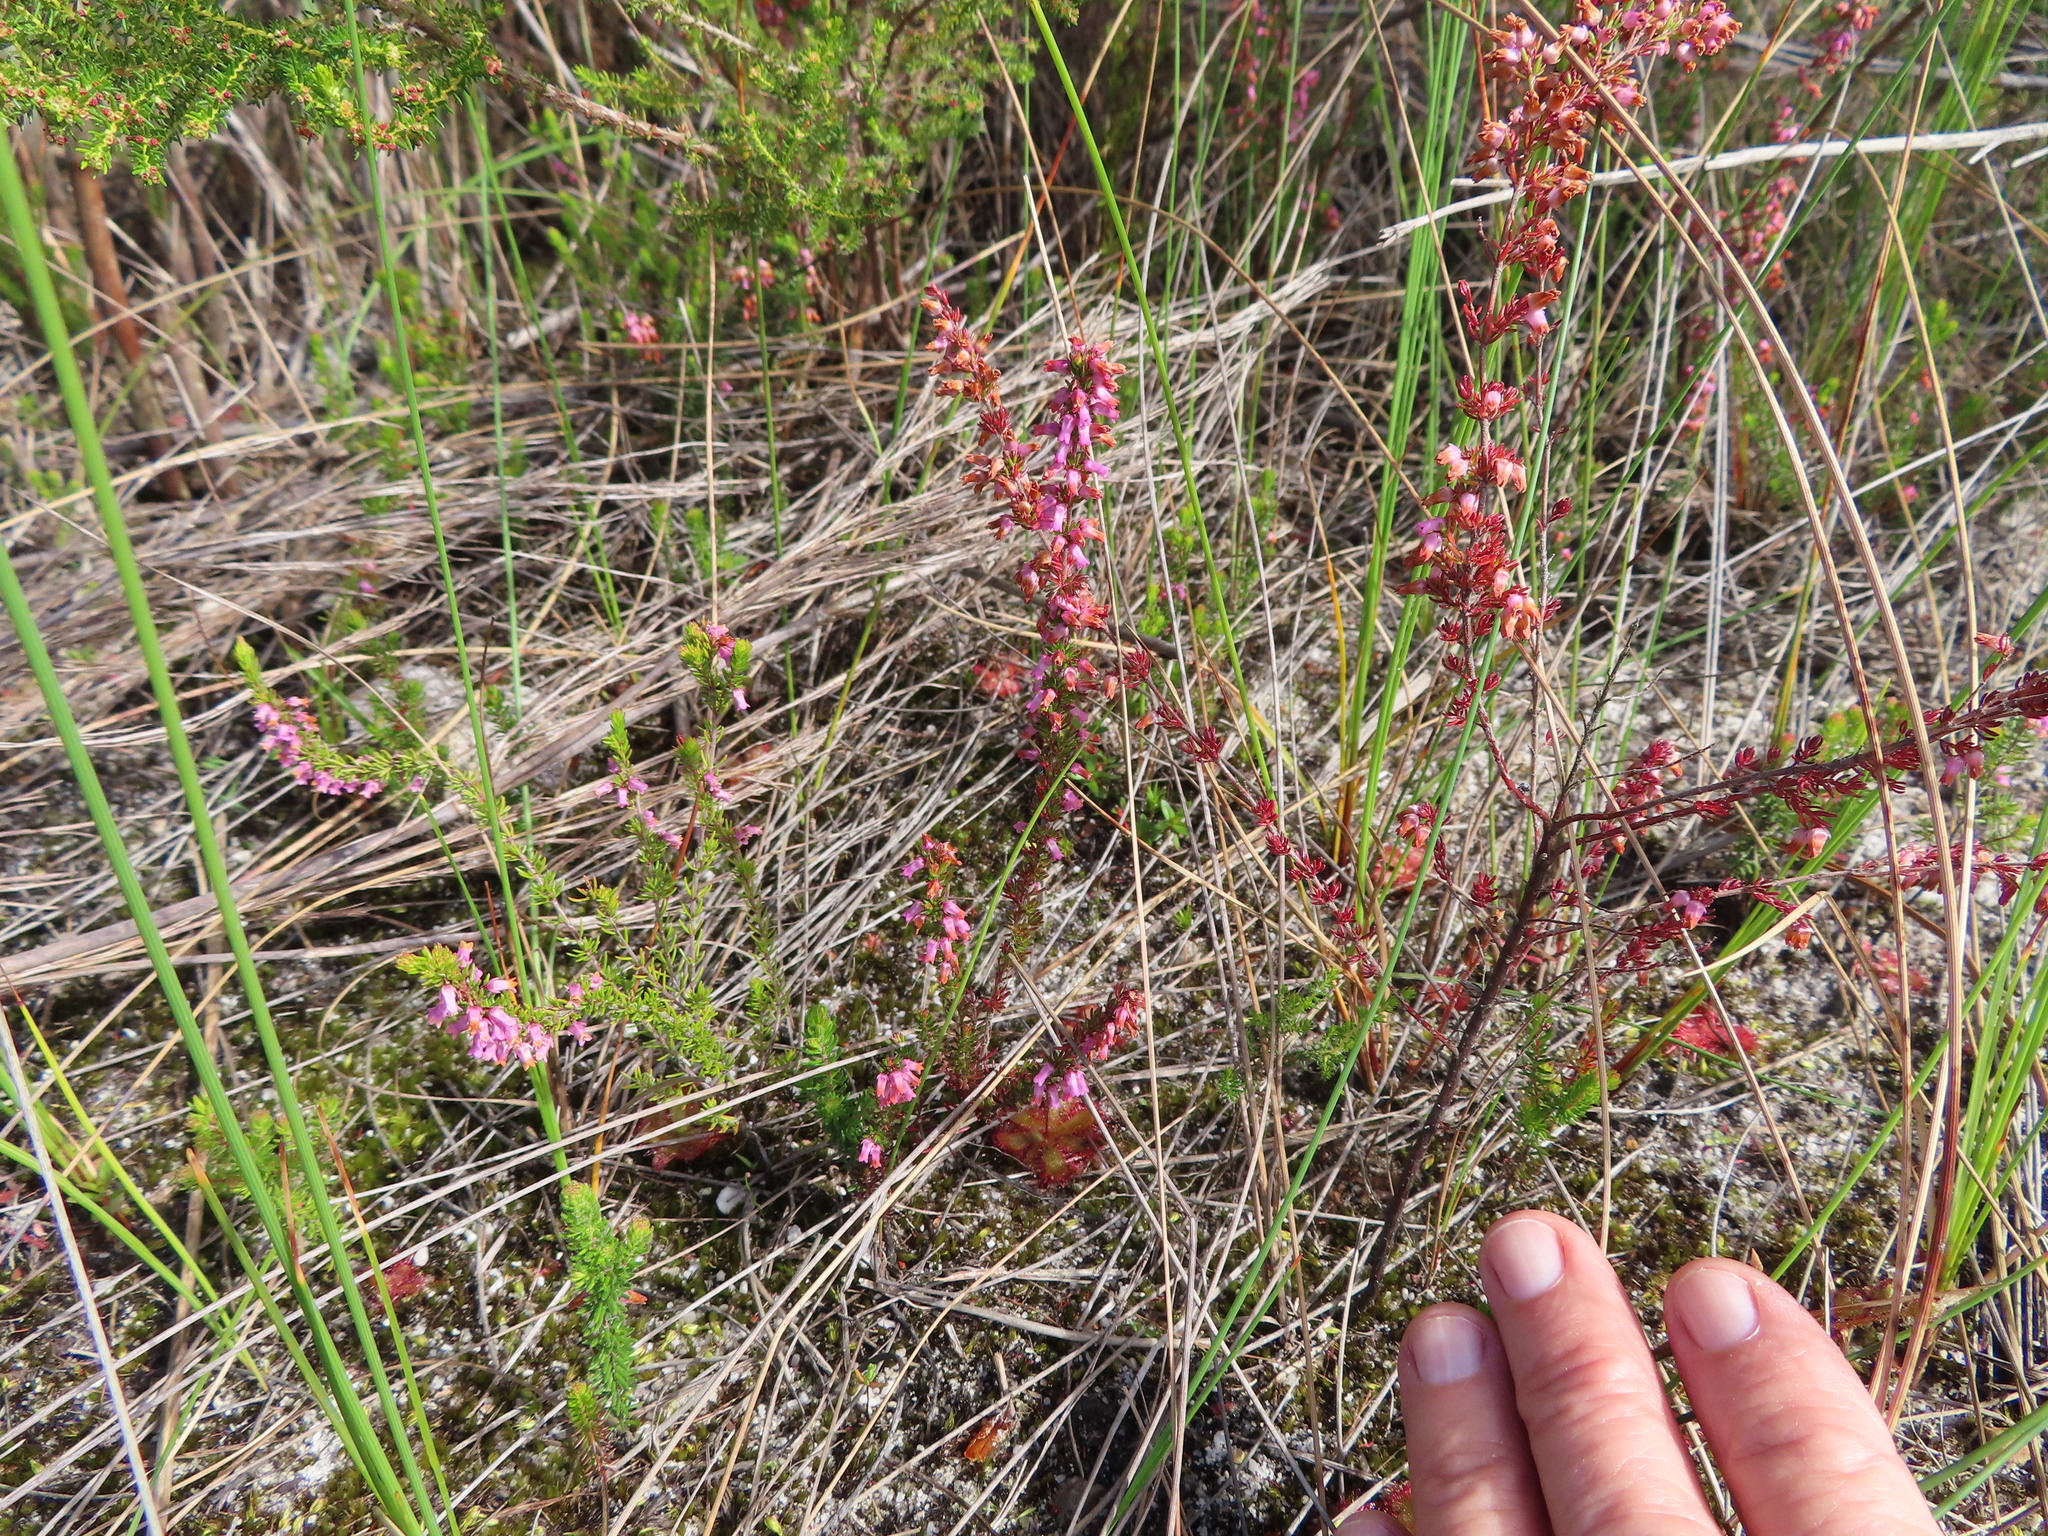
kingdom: Plantae
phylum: Tracheophyta
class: Magnoliopsida
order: Ericales
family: Ericaceae
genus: Erica
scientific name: Erica intervallaris
